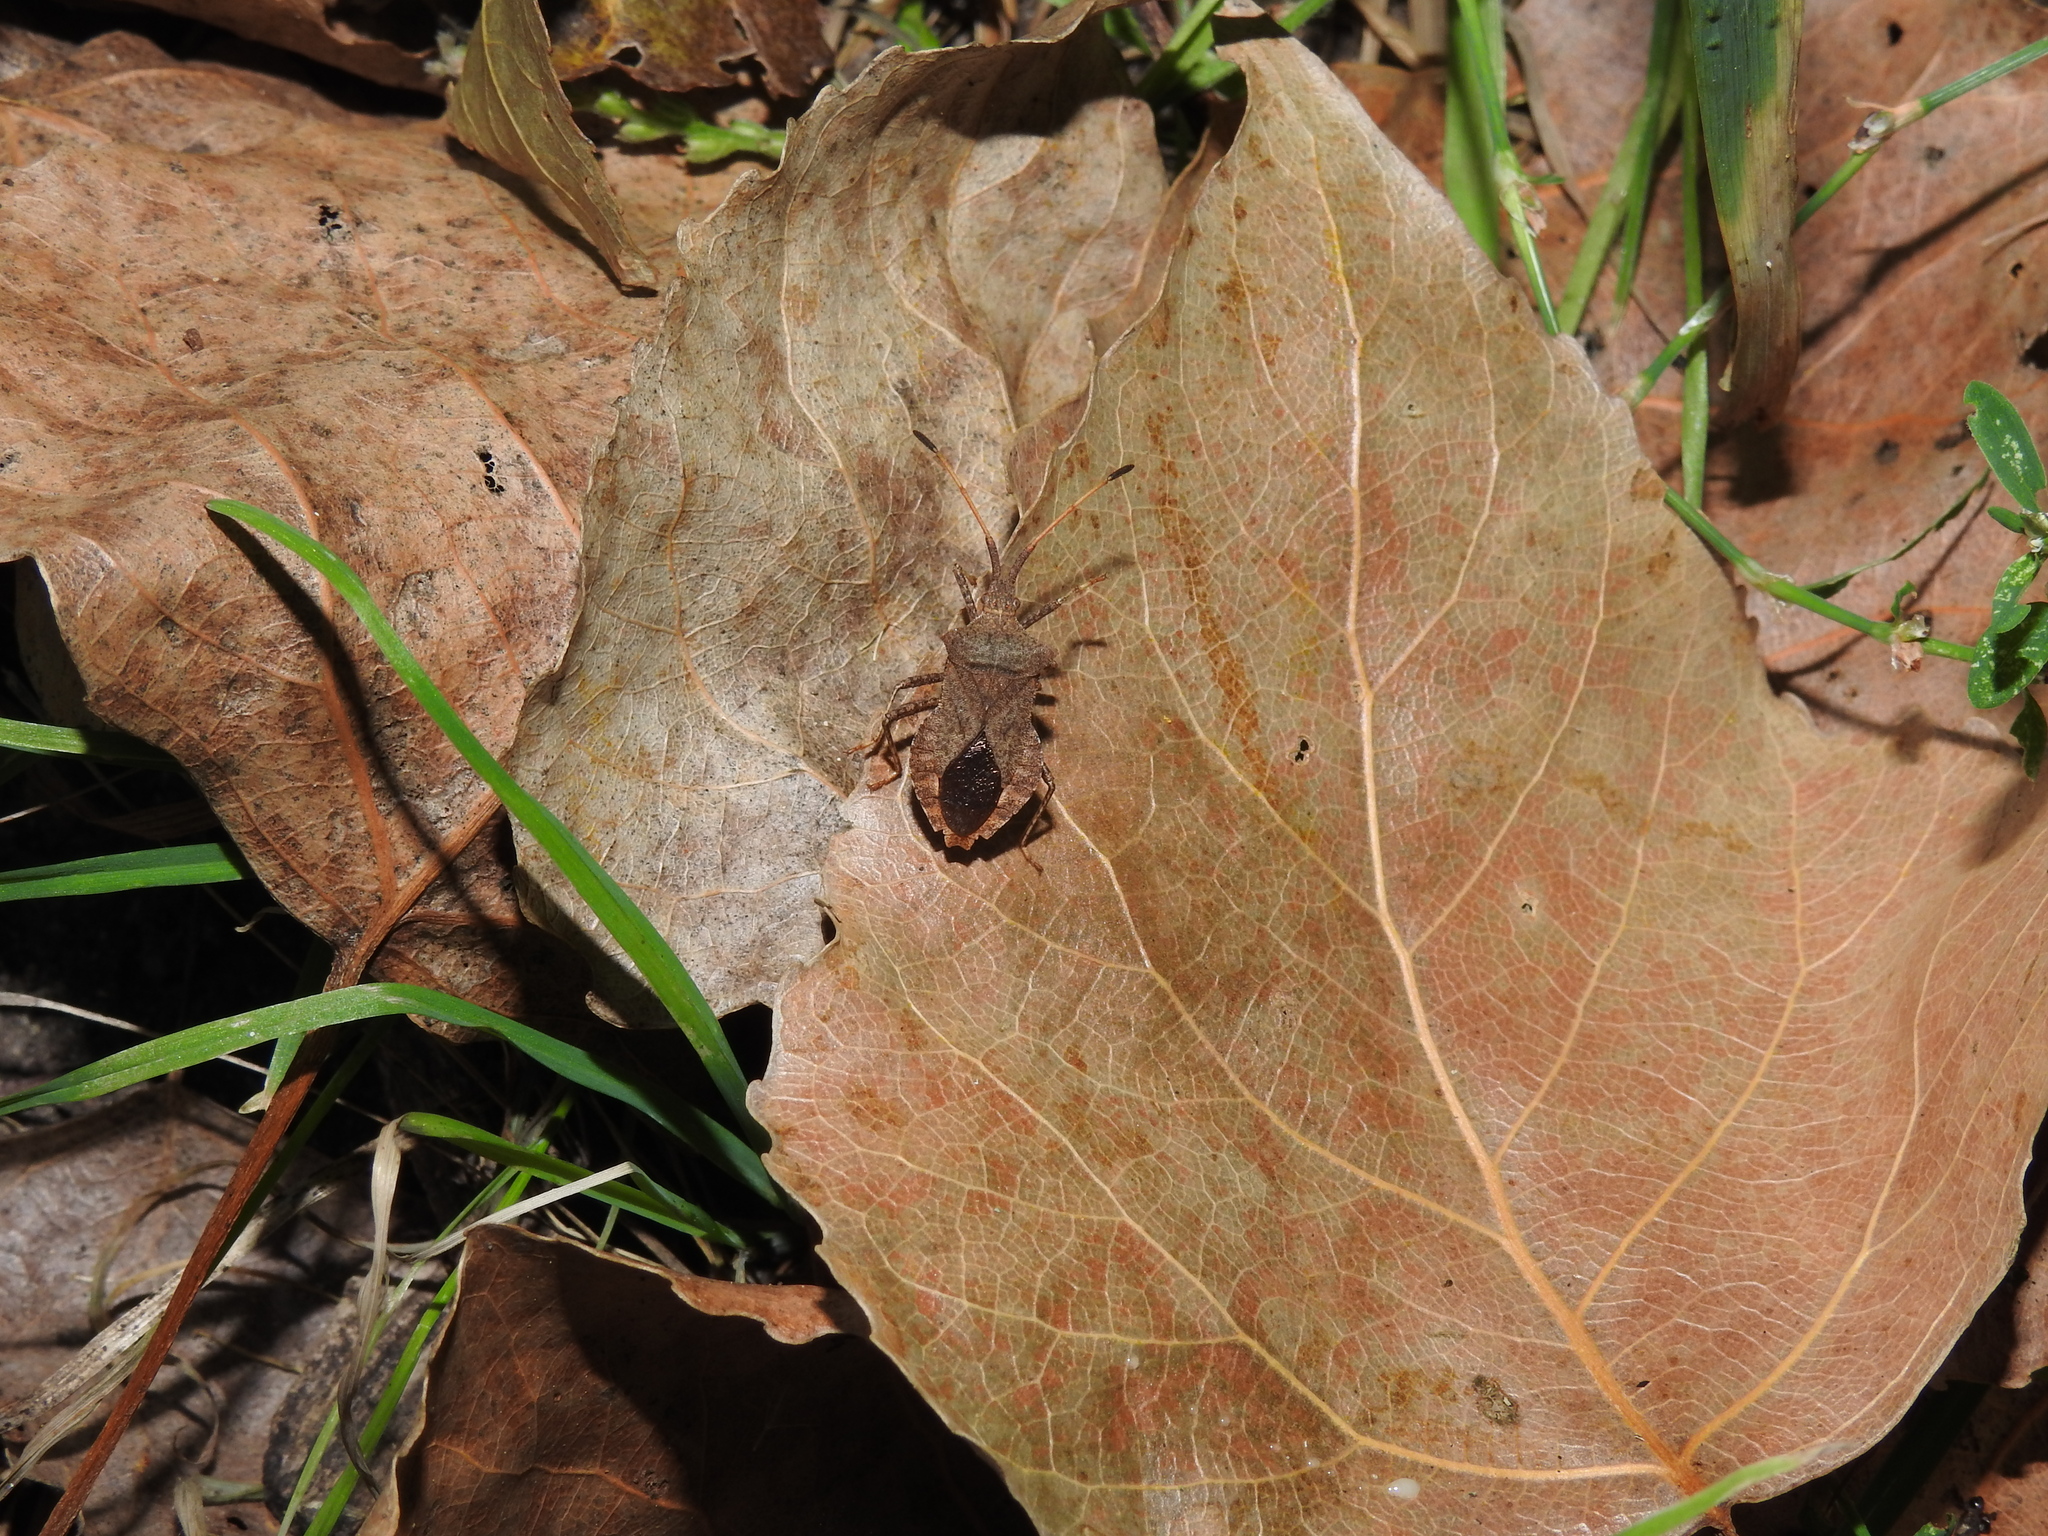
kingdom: Animalia
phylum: Arthropoda
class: Insecta
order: Hemiptera
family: Coreidae
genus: Coreus
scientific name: Coreus marginatus
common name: Dock bug
